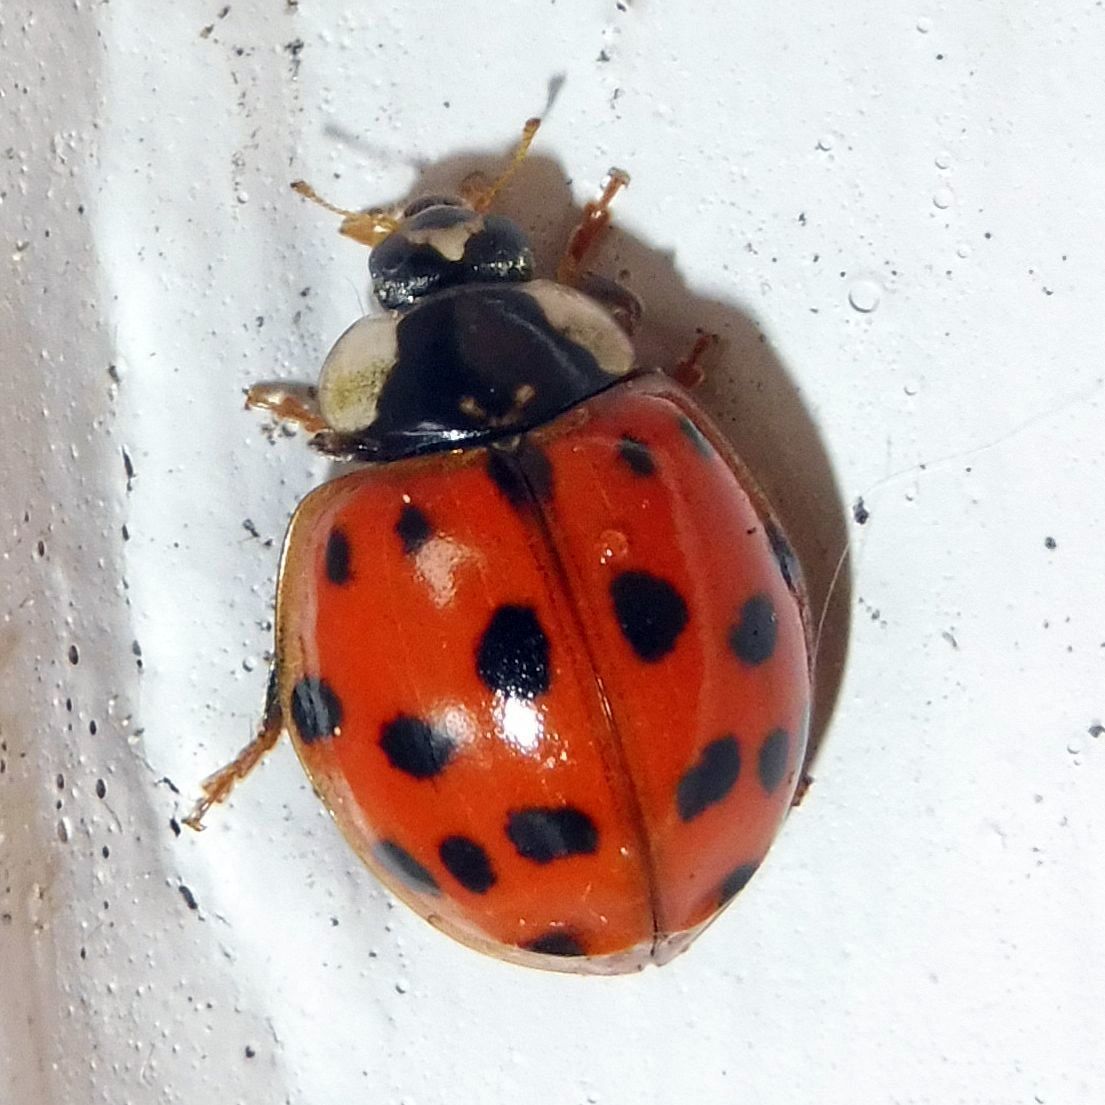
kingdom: Animalia
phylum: Arthropoda
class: Insecta
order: Coleoptera
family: Coccinellidae
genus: Harmonia
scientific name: Harmonia axyridis
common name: Harlequin ladybird
